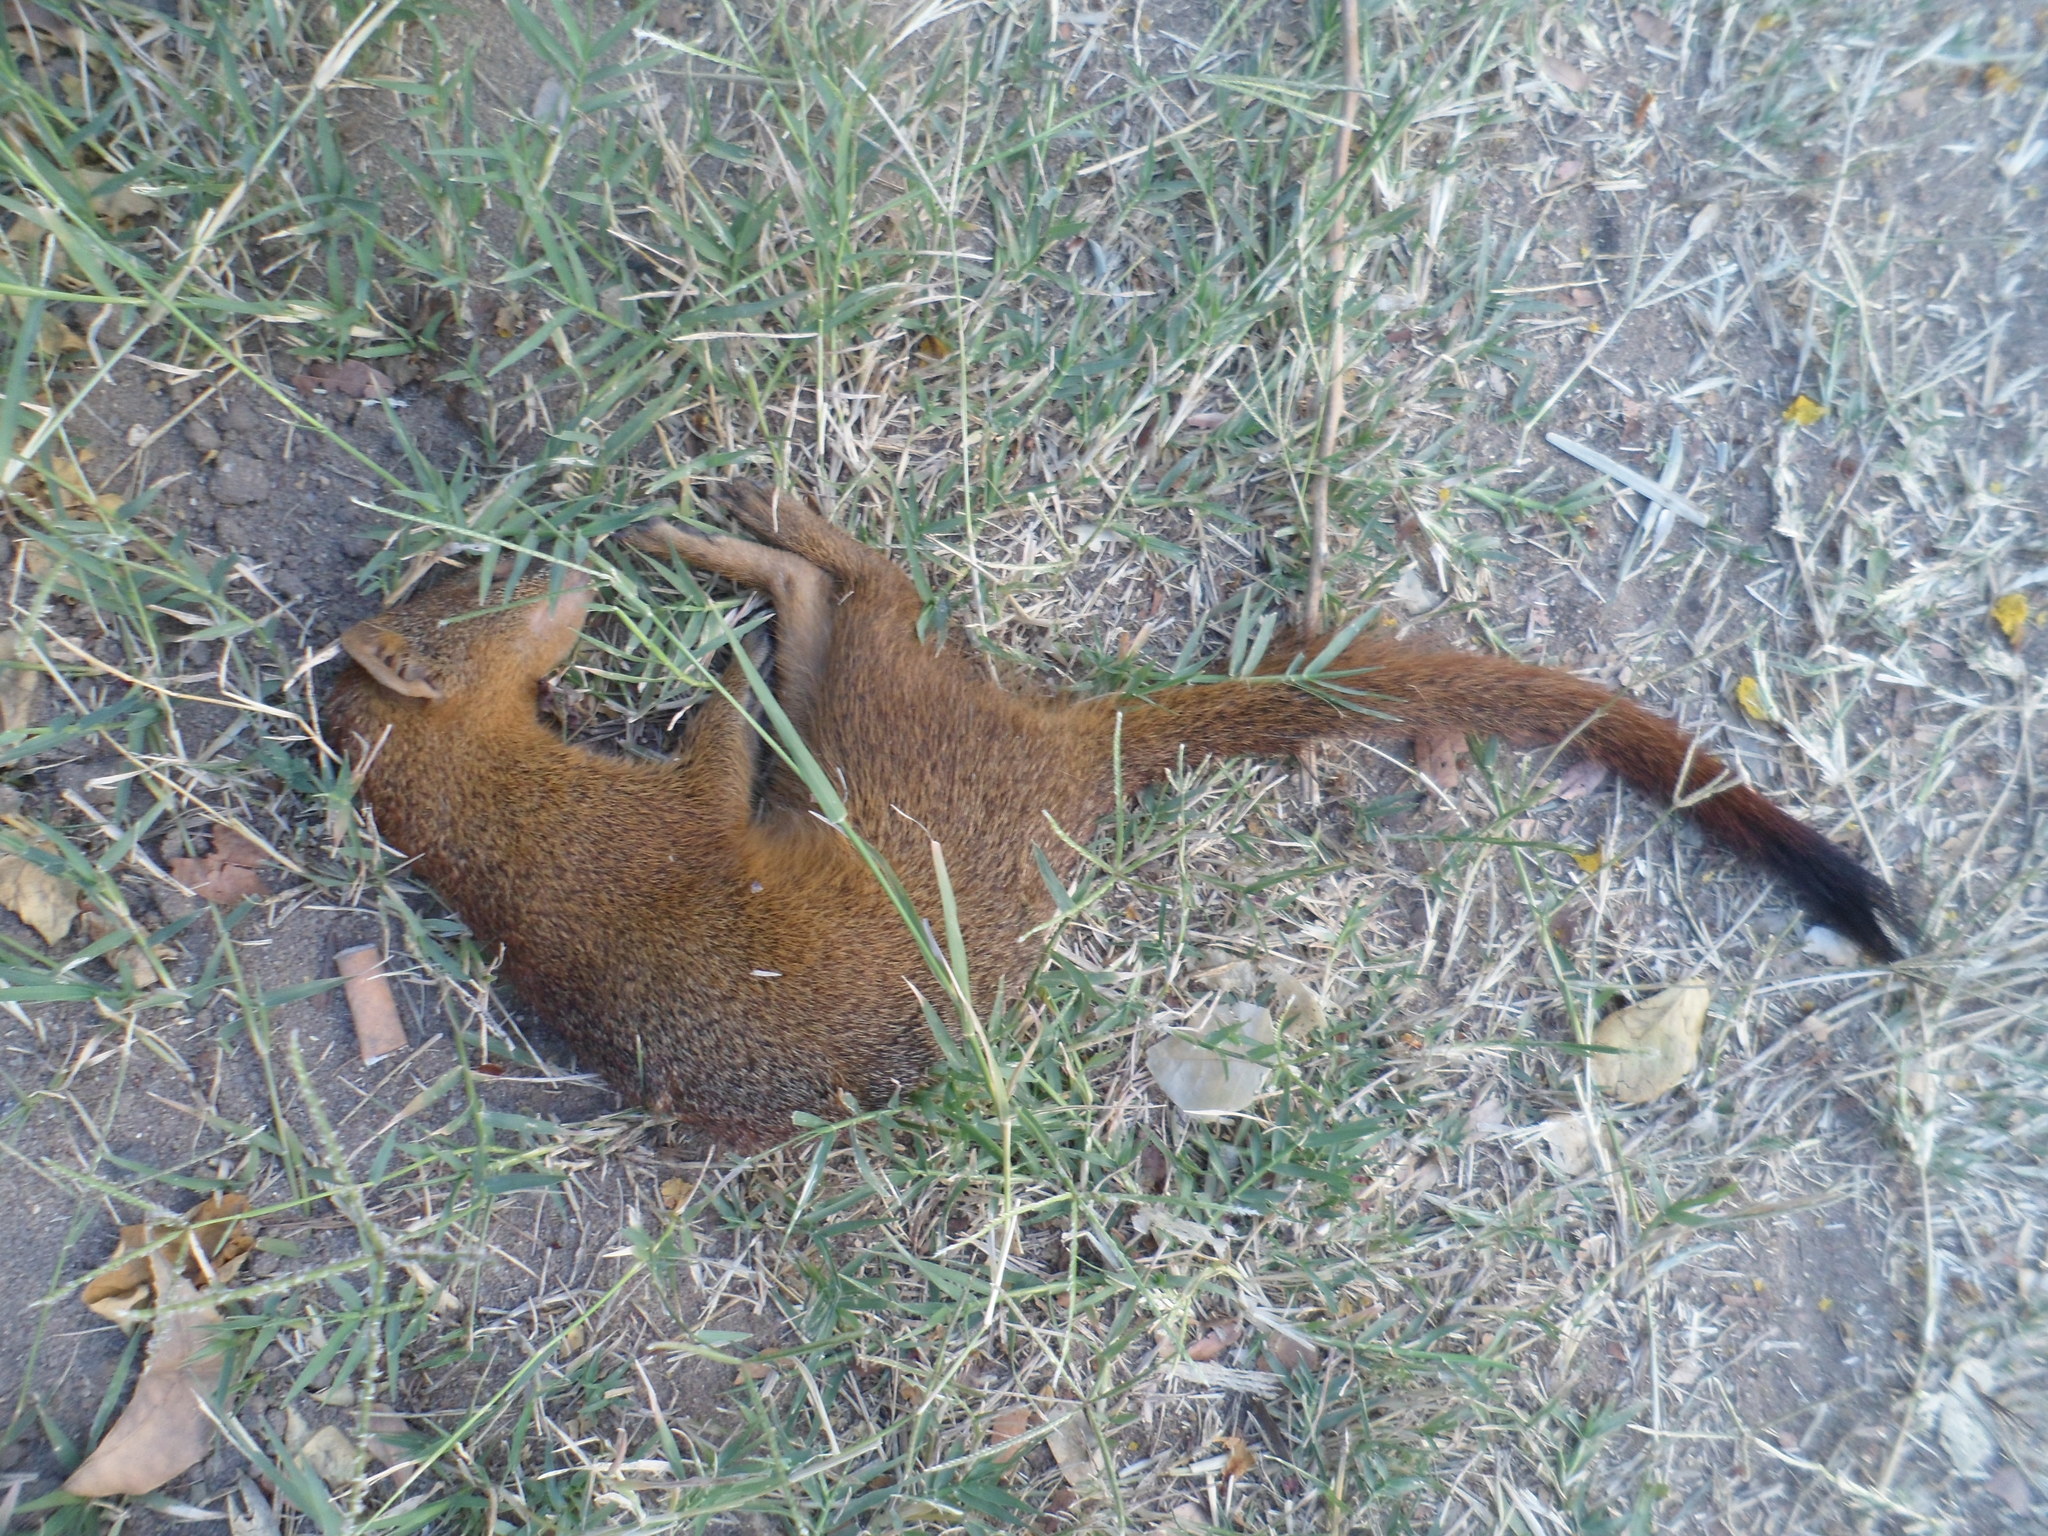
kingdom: Animalia
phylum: Chordata
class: Mammalia
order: Carnivora
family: Herpestidae
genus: Galerella
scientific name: Galerella sanguinea
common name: Slender mongoose
